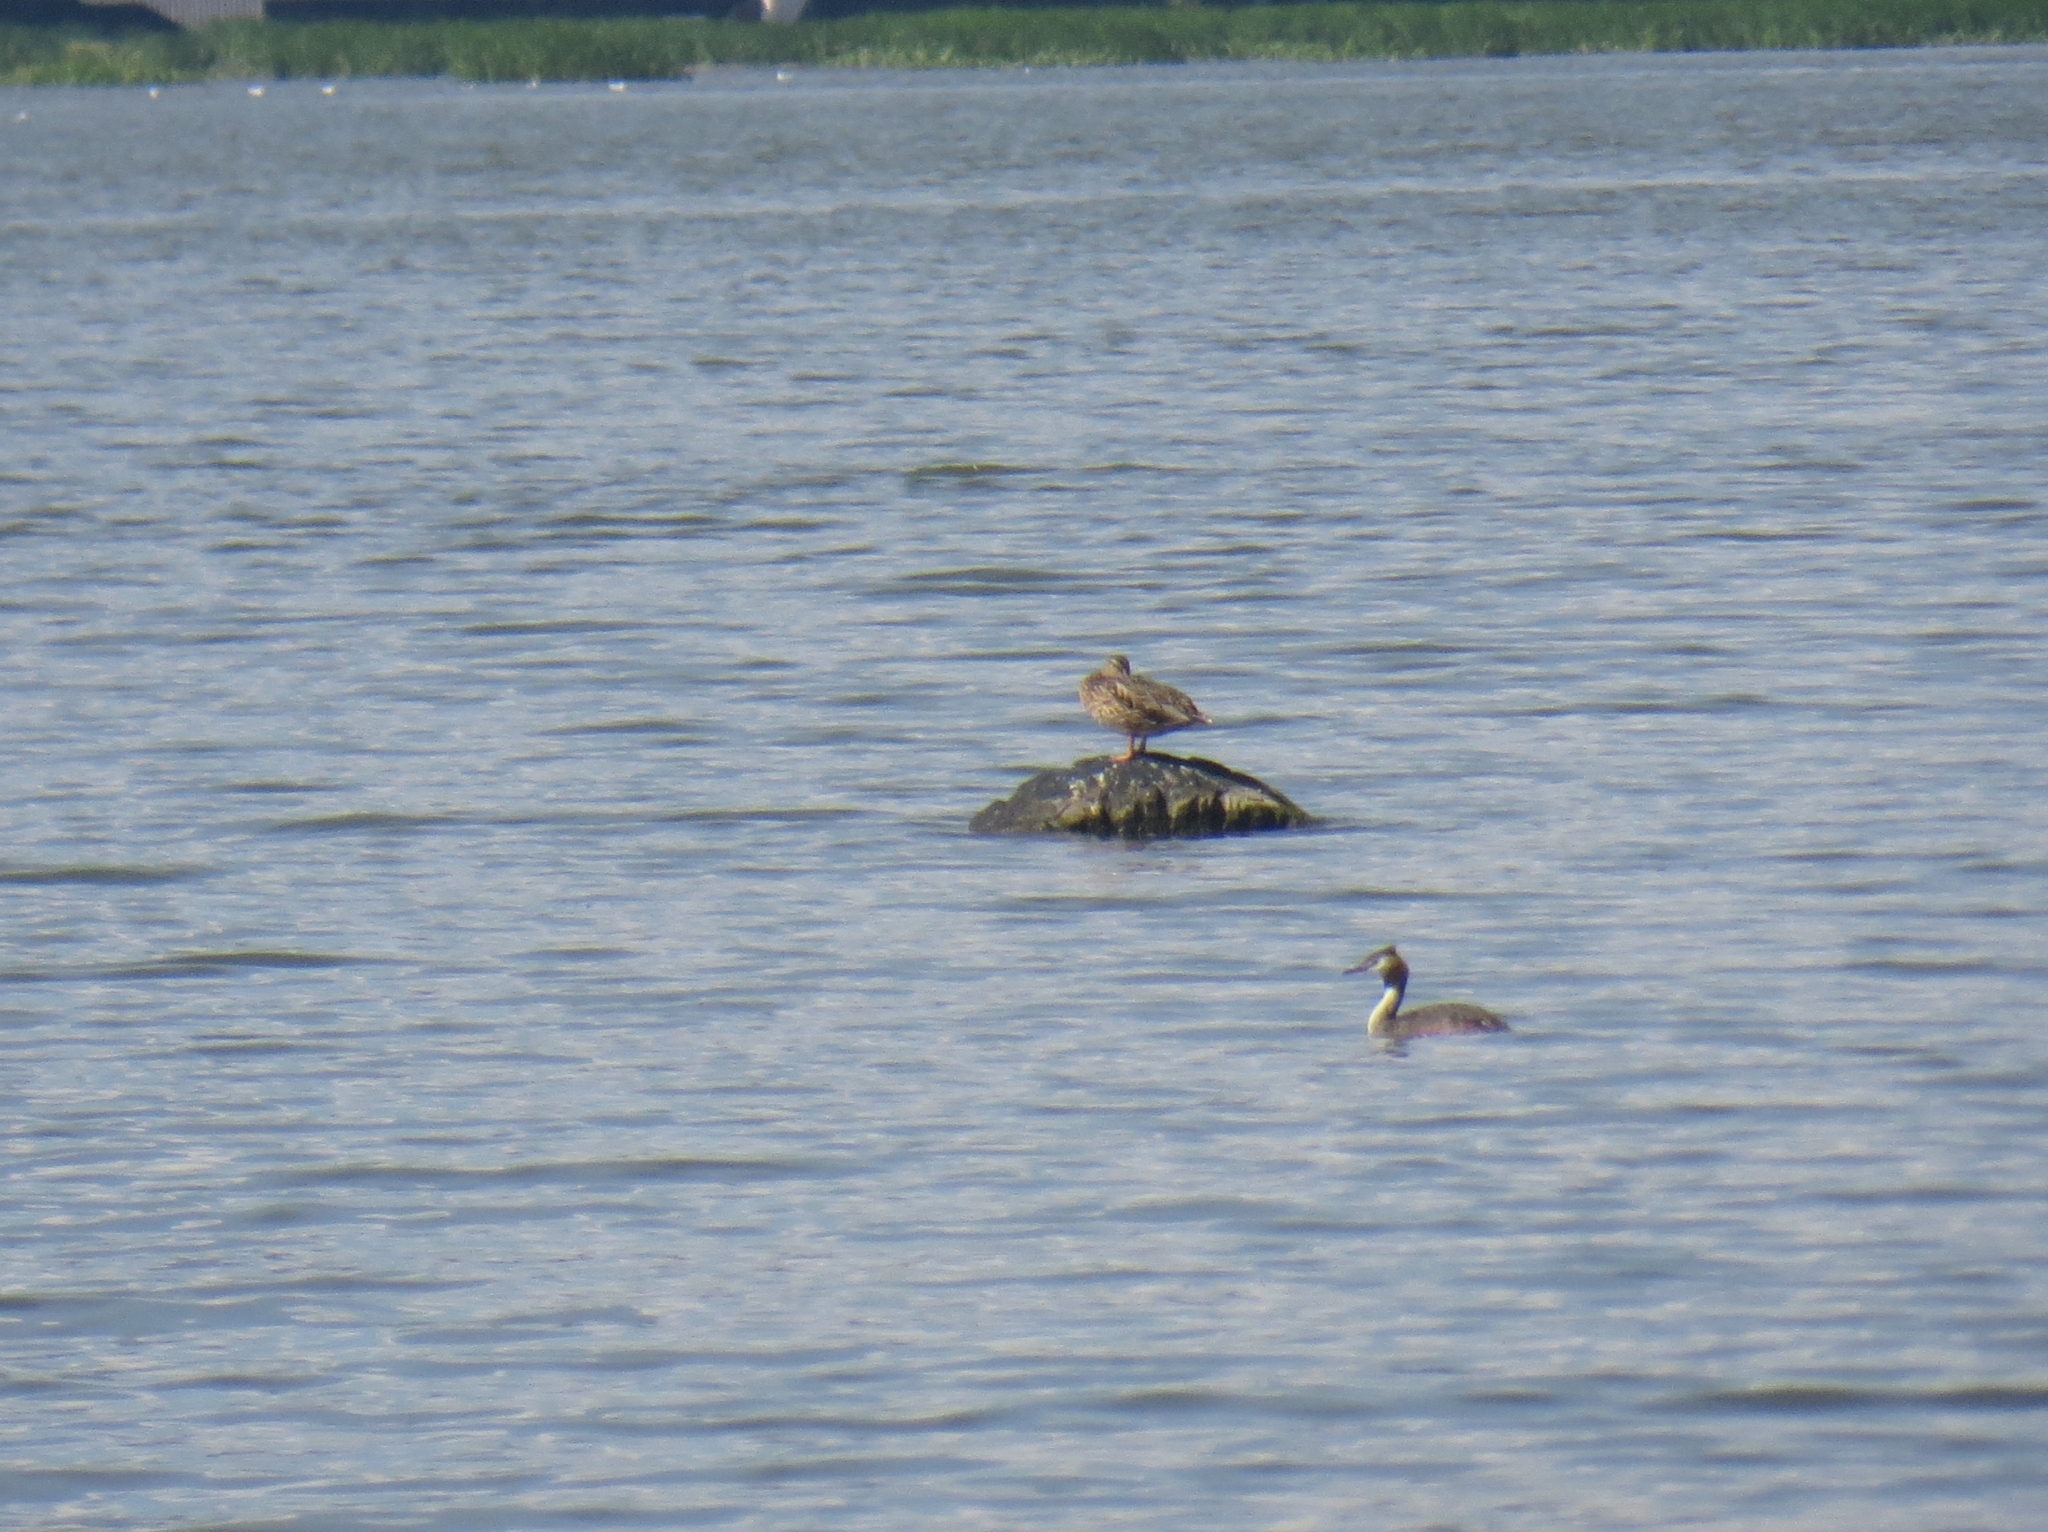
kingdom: Animalia
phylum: Chordata
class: Aves
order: Podicipediformes
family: Podicipedidae
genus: Podiceps
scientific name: Podiceps cristatus
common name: Great crested grebe
